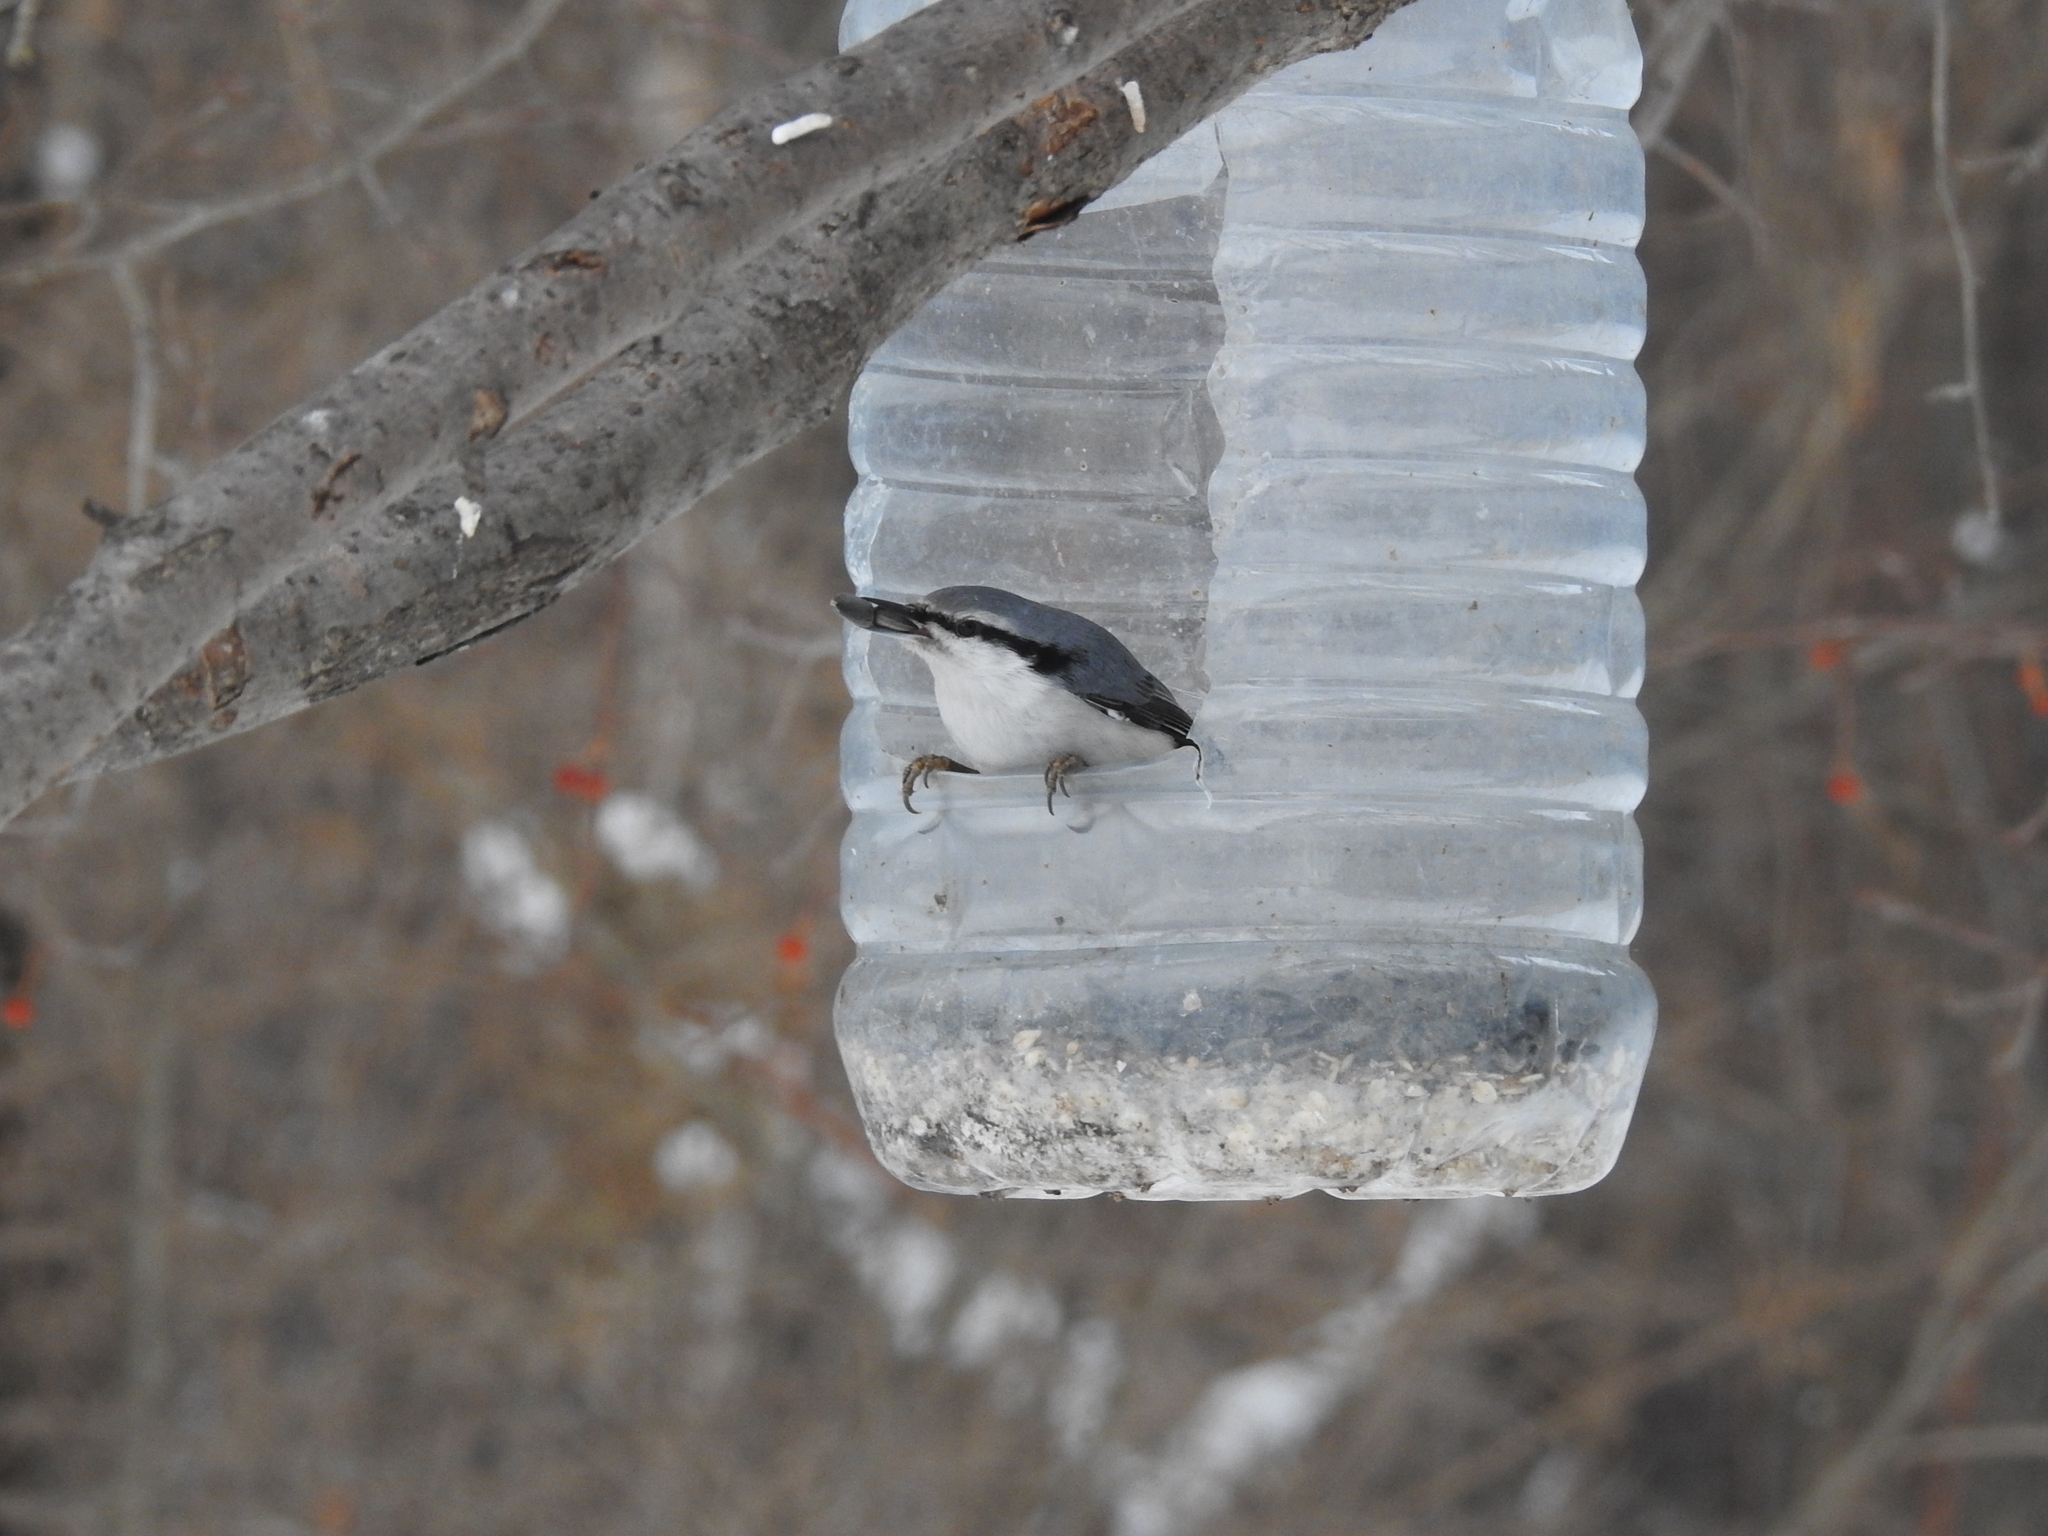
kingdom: Animalia
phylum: Chordata
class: Aves
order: Passeriformes
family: Sittidae
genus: Sitta
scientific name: Sitta europaea
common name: Eurasian nuthatch
